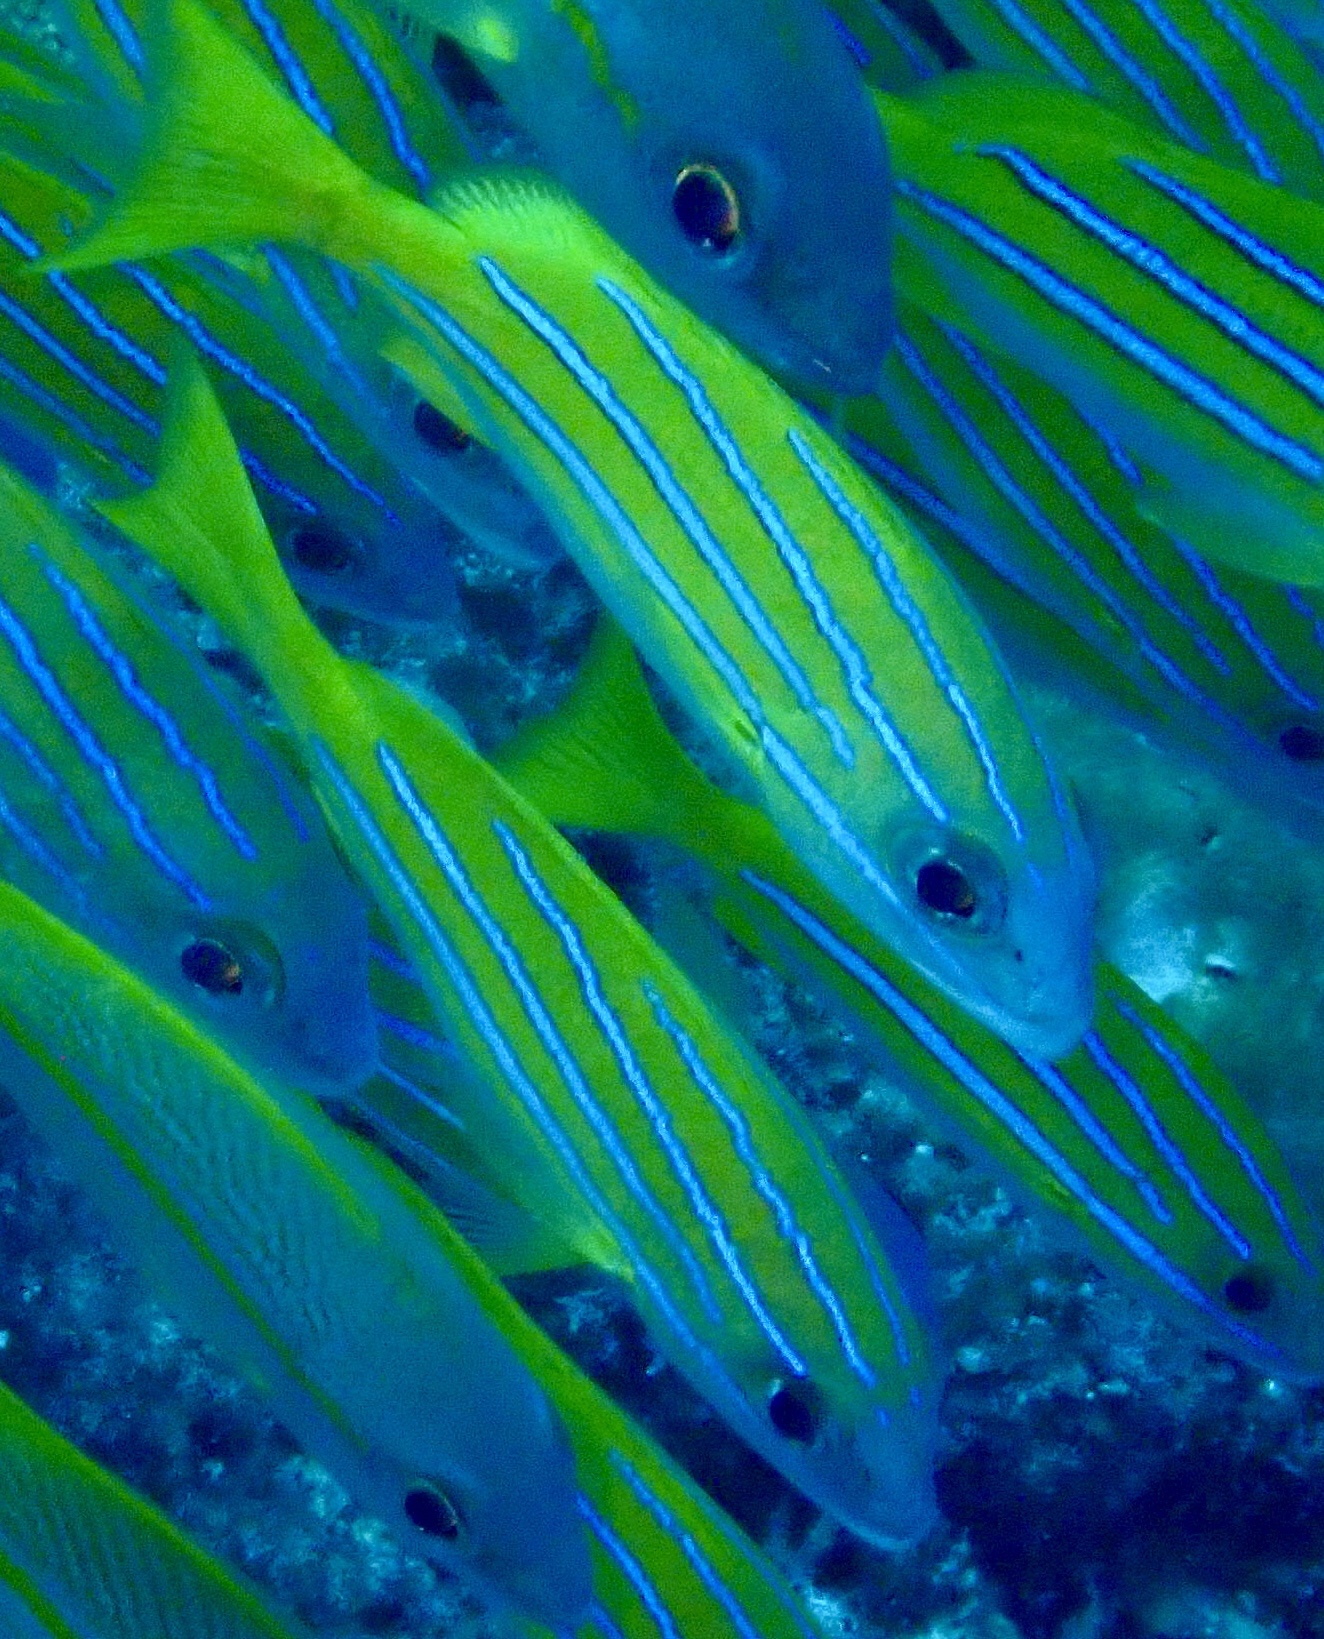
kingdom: Animalia
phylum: Chordata
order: Perciformes
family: Lutjanidae
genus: Lutjanus
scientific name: Lutjanus kasmira
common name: Common bluestripe snapper
